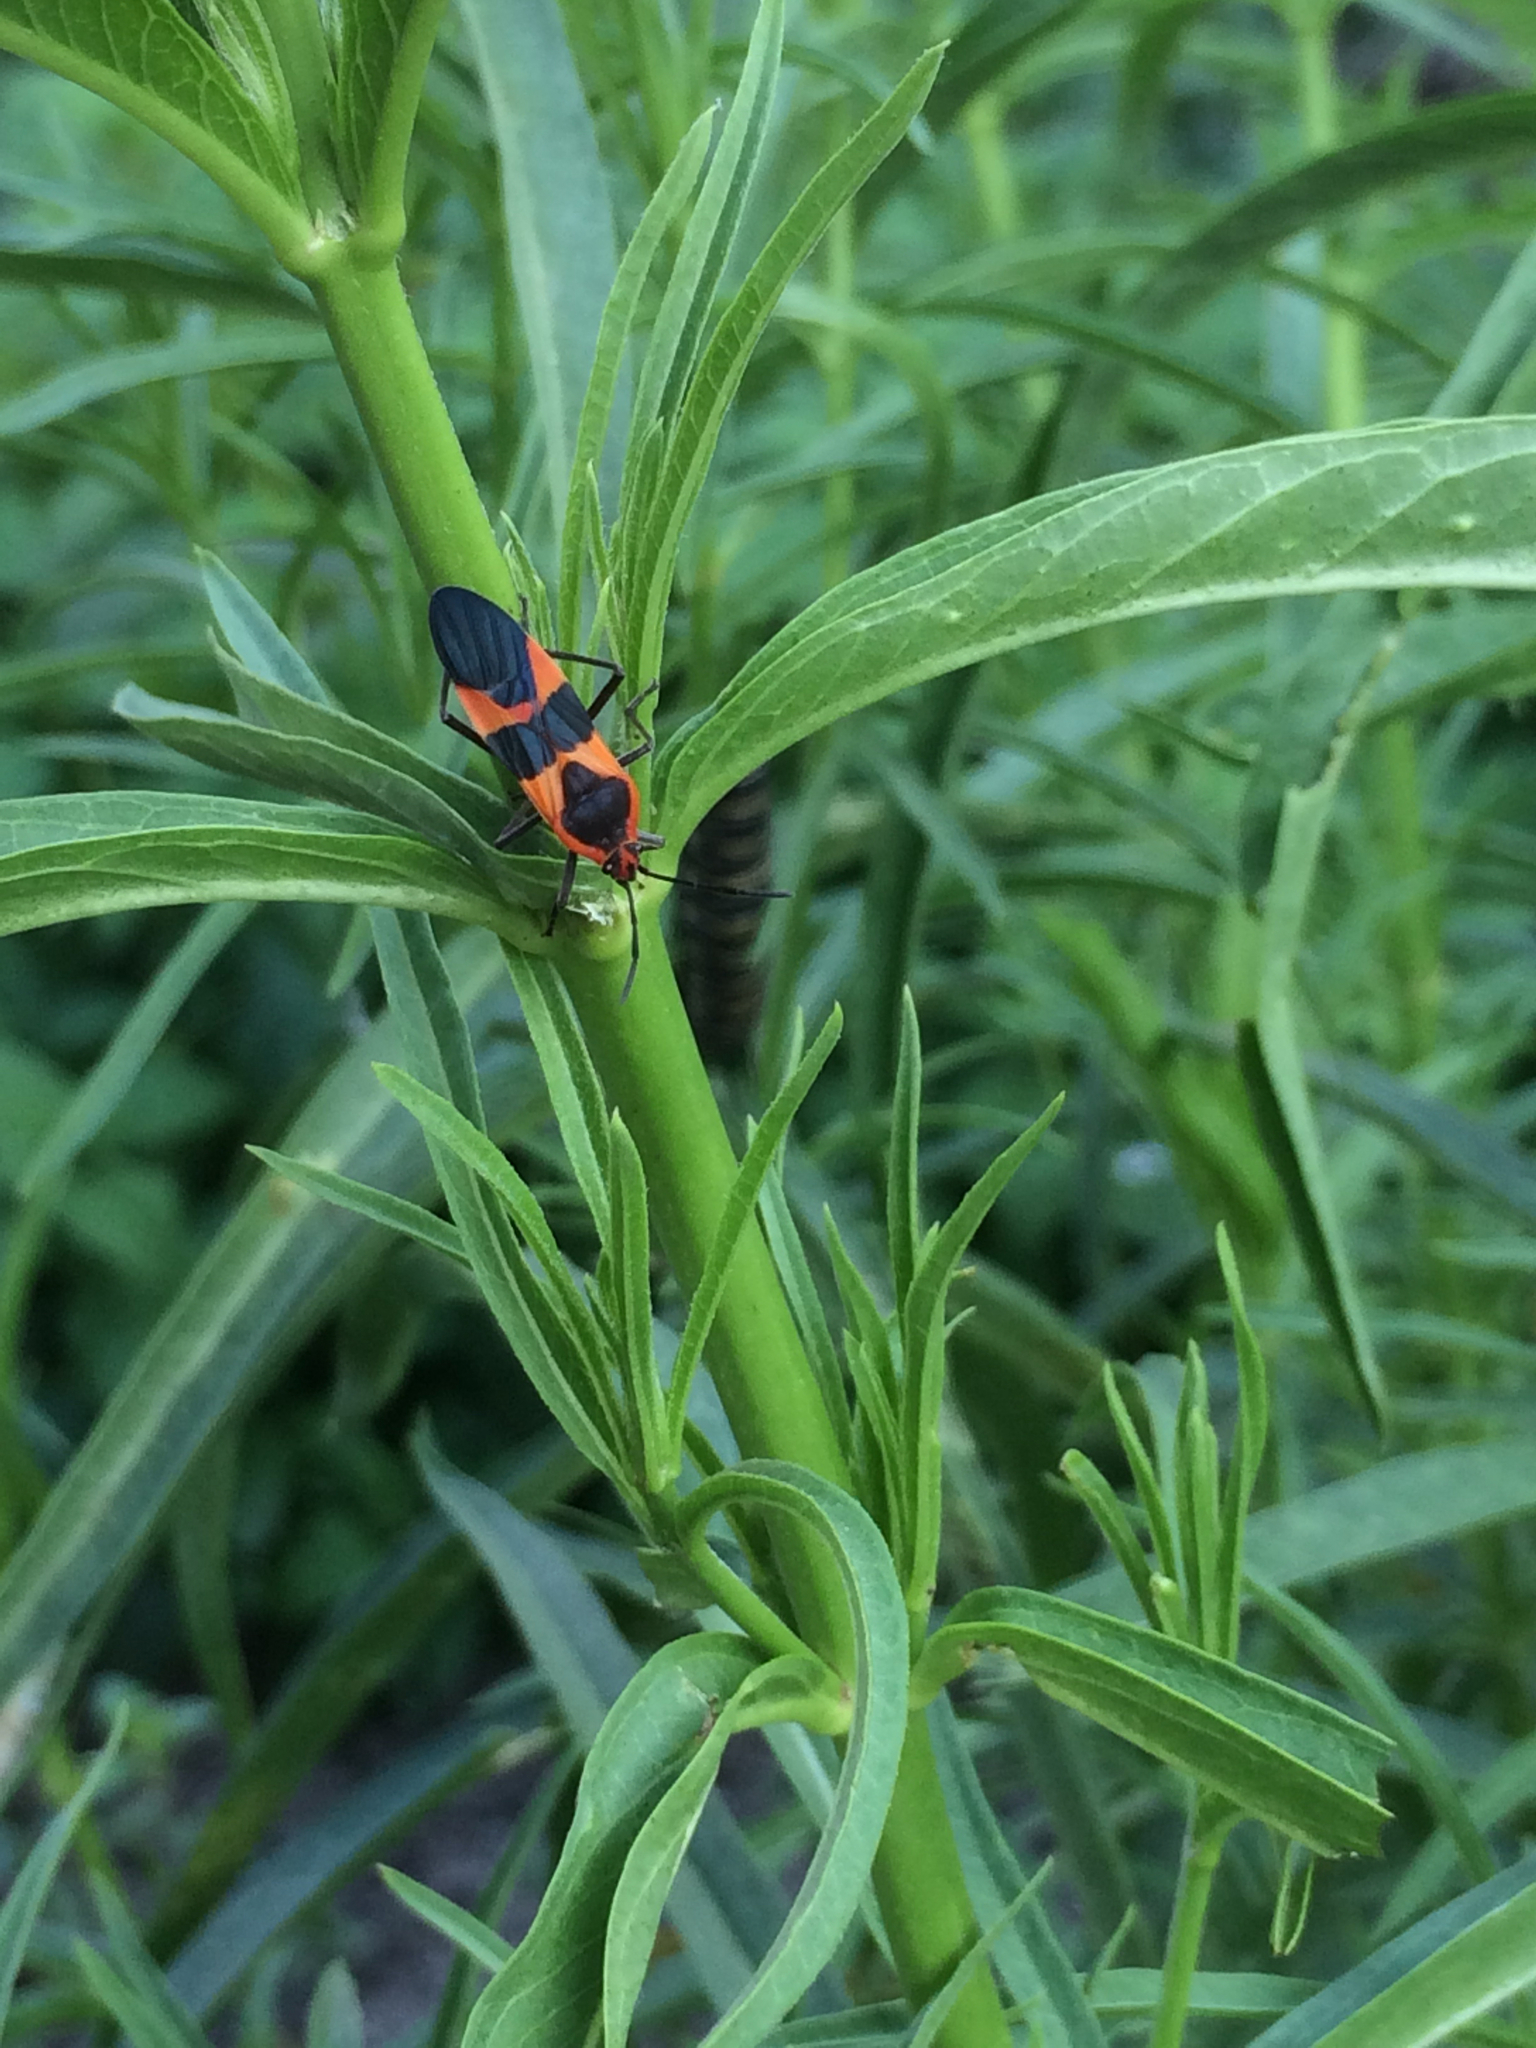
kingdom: Animalia
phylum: Arthropoda
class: Insecta
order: Hemiptera
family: Lygaeidae
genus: Oncopeltus
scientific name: Oncopeltus fasciatus
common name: Large milkweed bug
